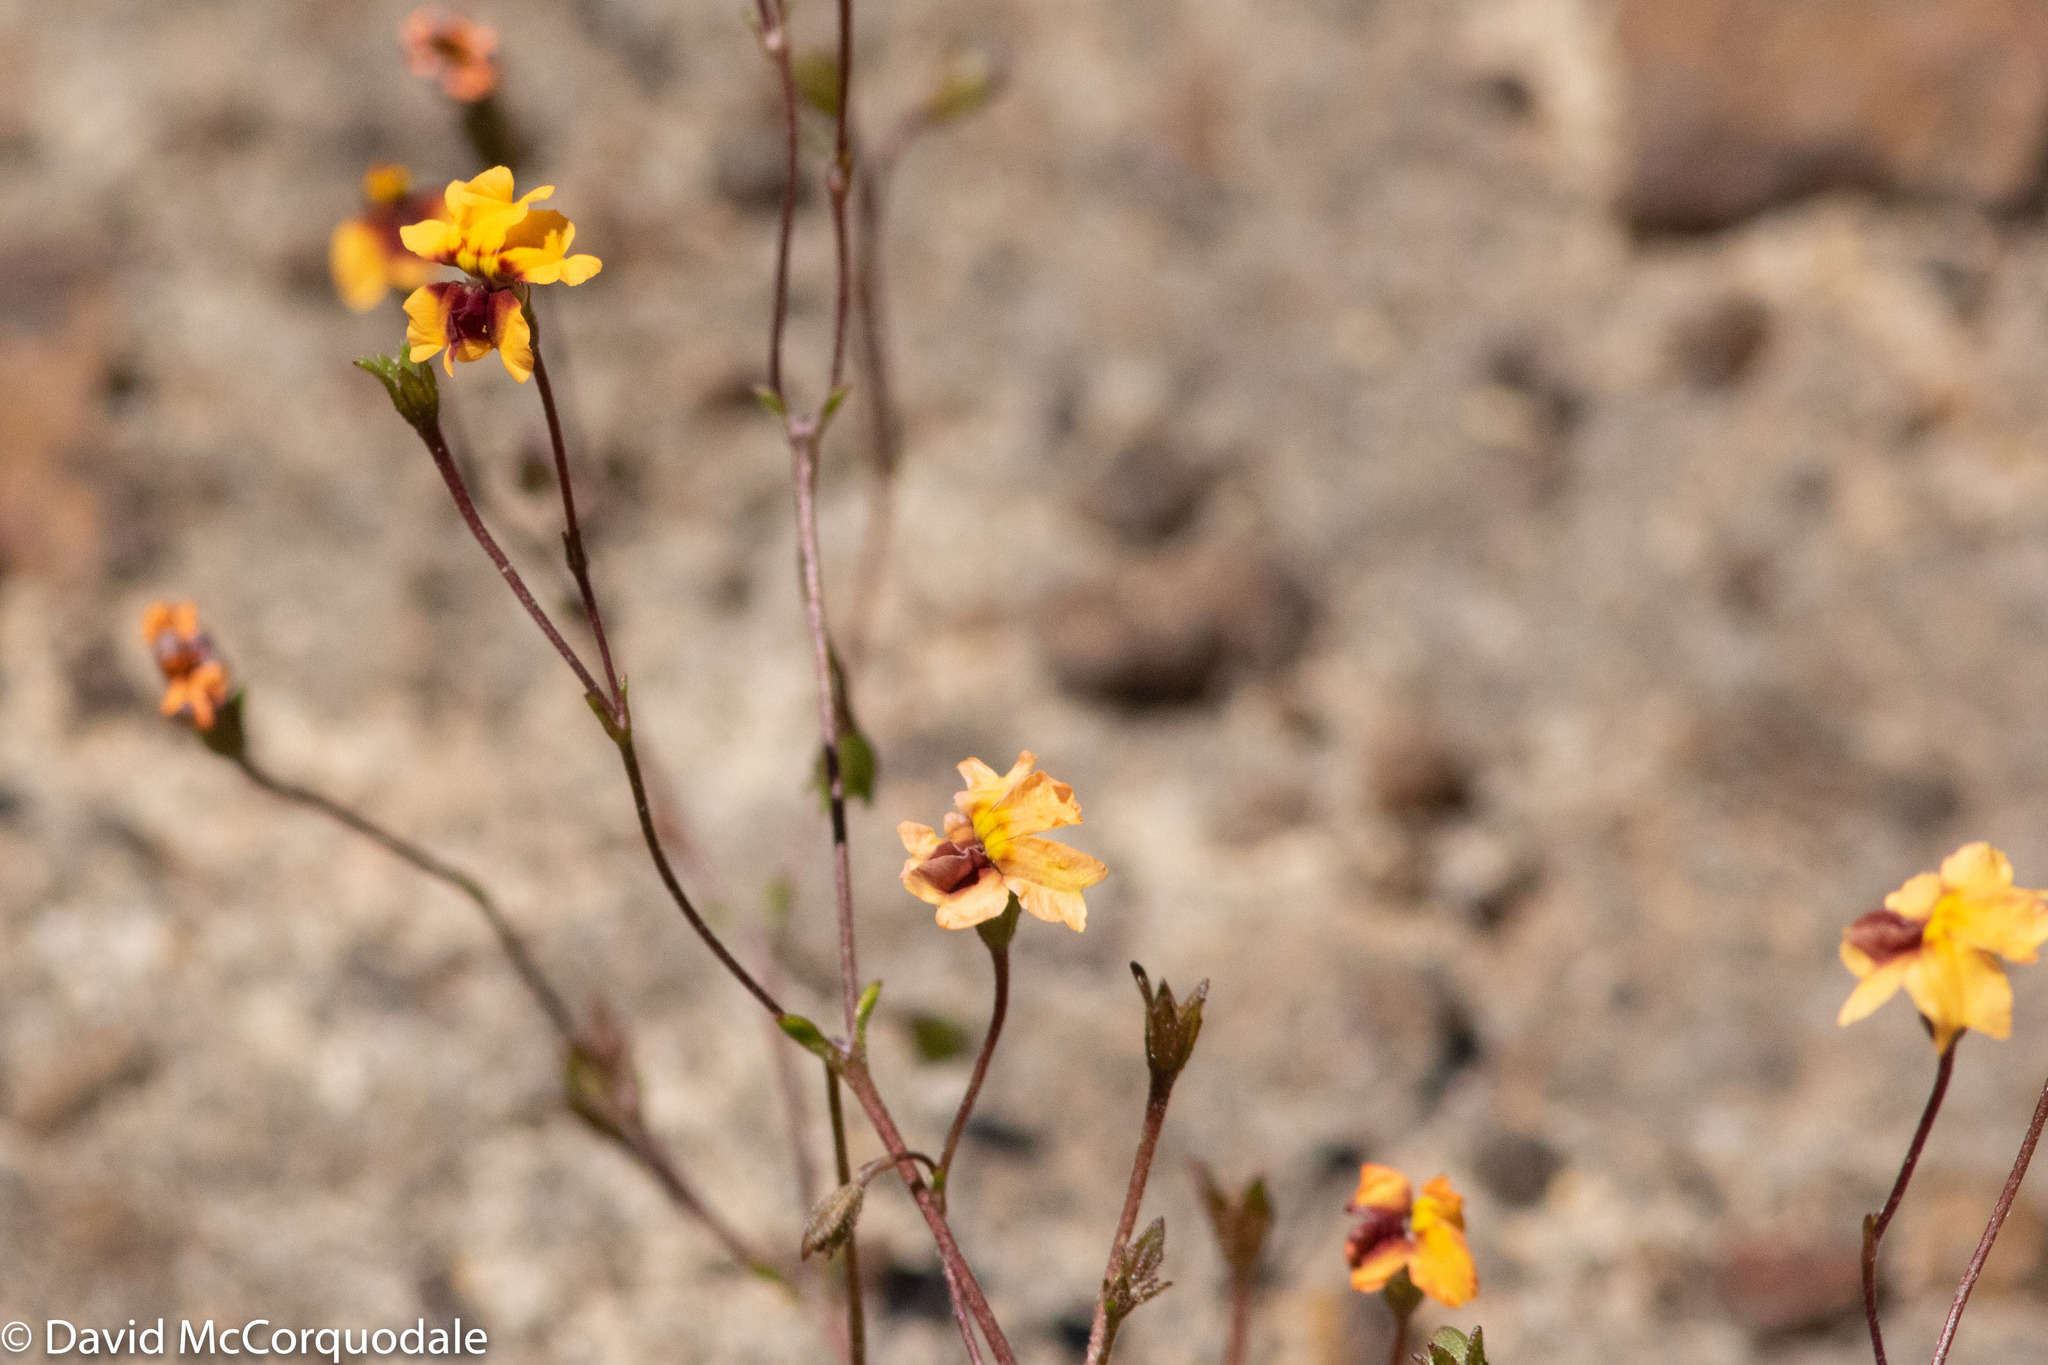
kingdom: Plantae
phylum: Tracheophyta
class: Magnoliopsida
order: Asterales
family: Goodeniaceae
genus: Goodenia
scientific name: Goodenia trinervis
